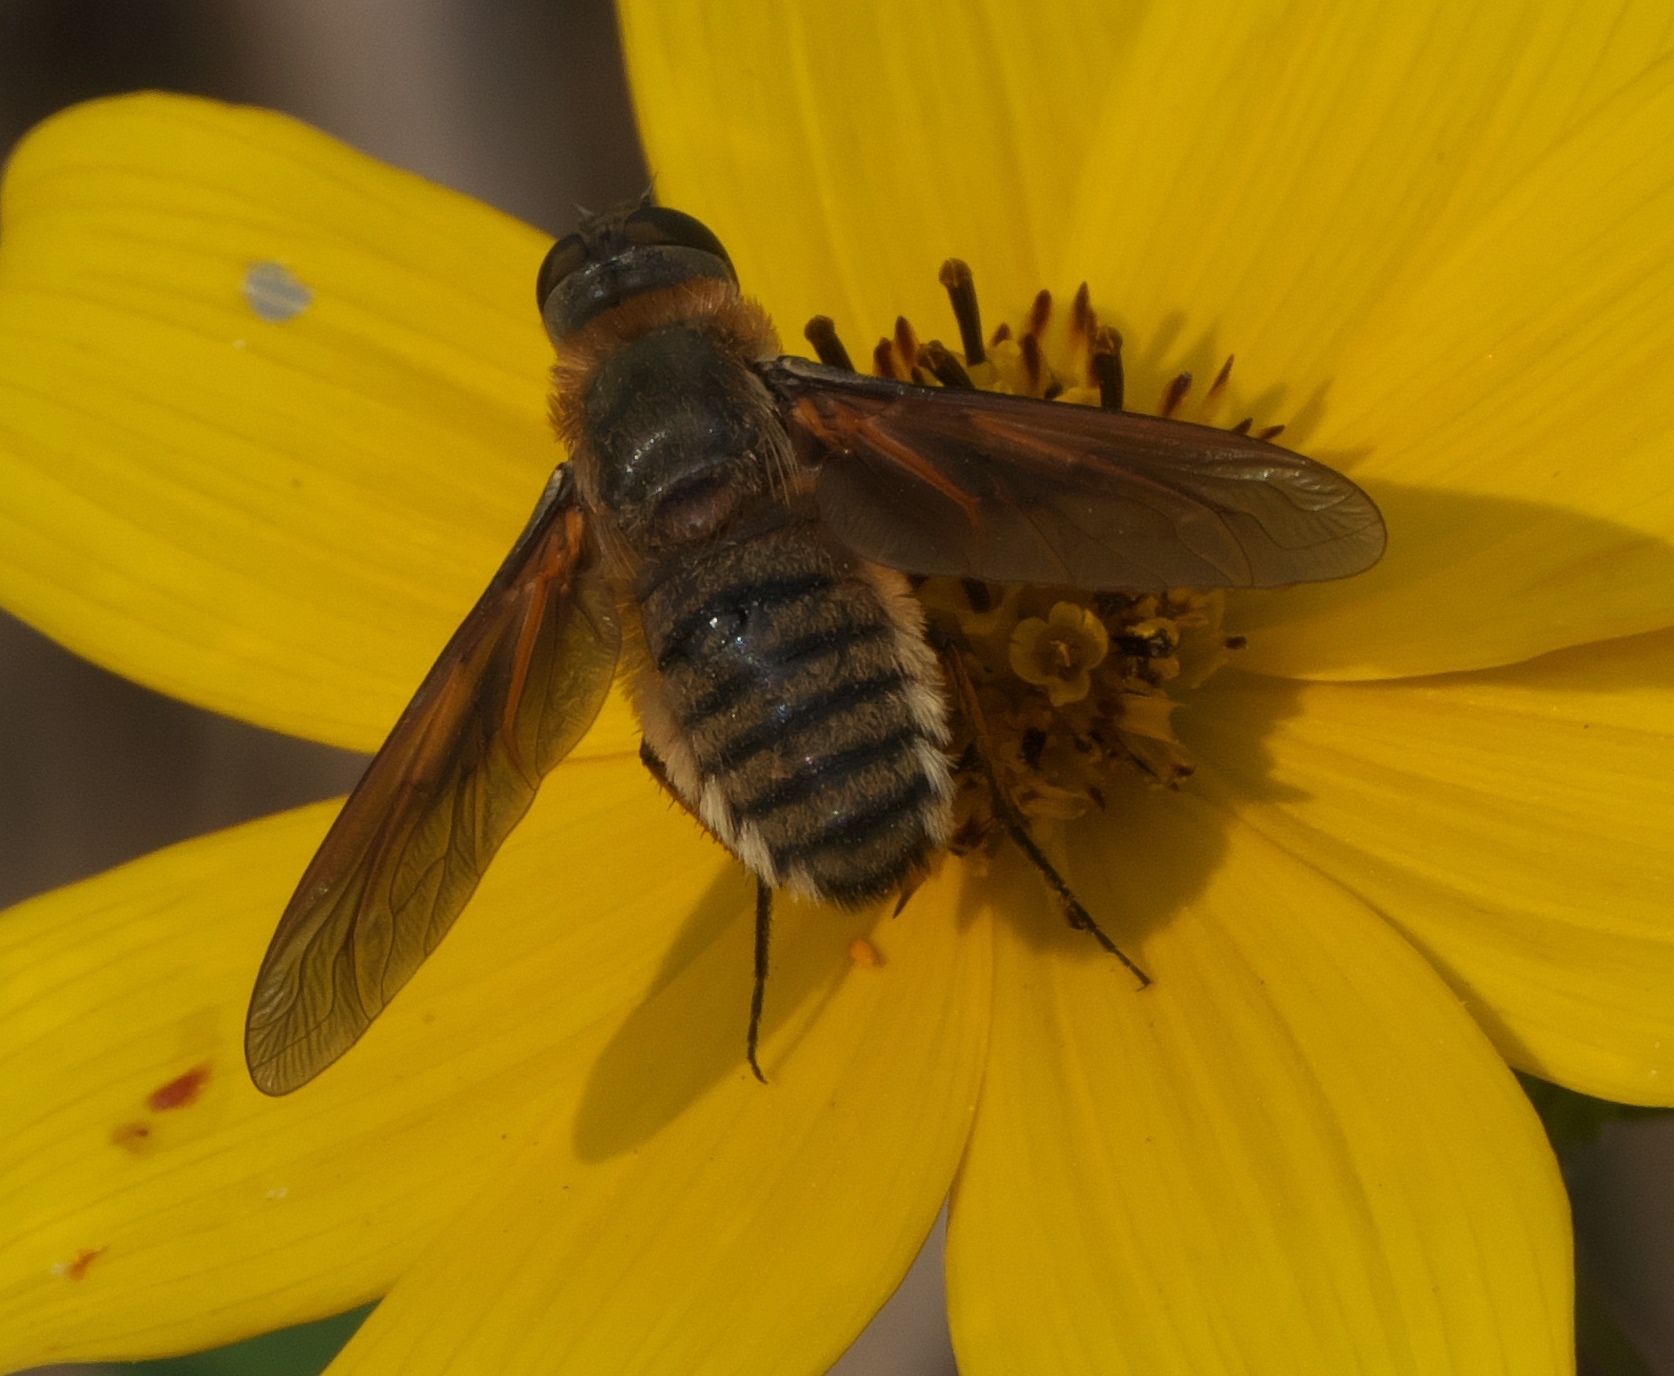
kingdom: Animalia
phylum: Arthropoda
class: Insecta
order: Diptera
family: Bombyliidae
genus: Poecilanthrax
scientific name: Poecilanthrax lucifer
